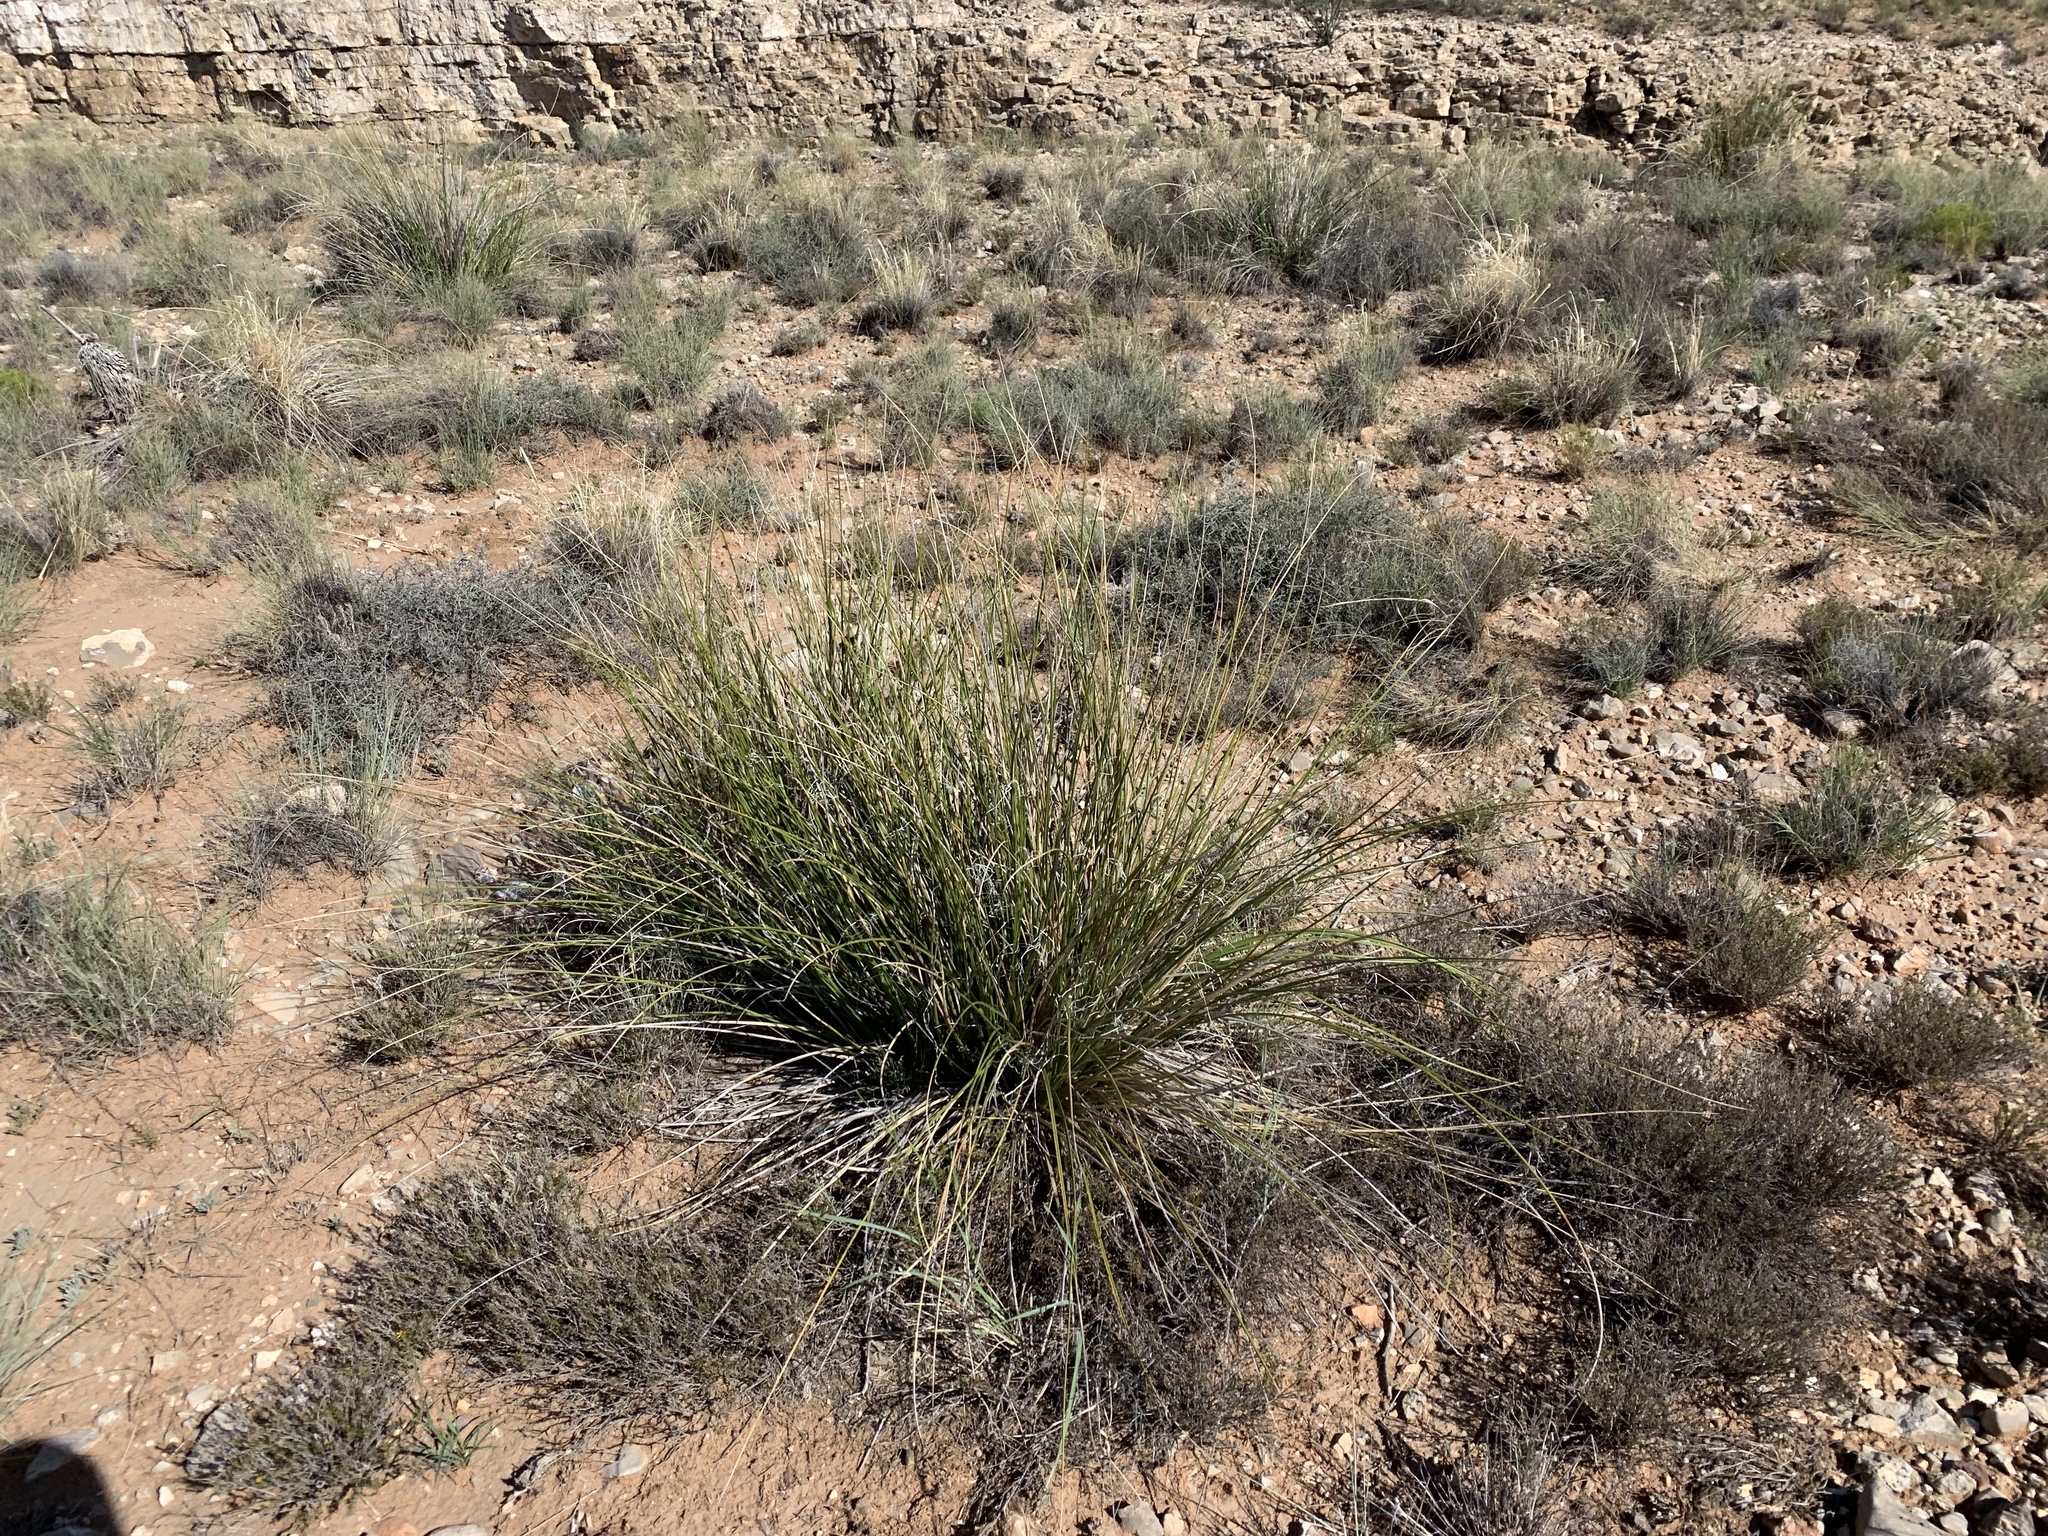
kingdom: Plantae
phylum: Tracheophyta
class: Liliopsida
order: Asparagales
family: Asparagaceae
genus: Nolina
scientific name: Nolina texana
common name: Texas sacahuiste
